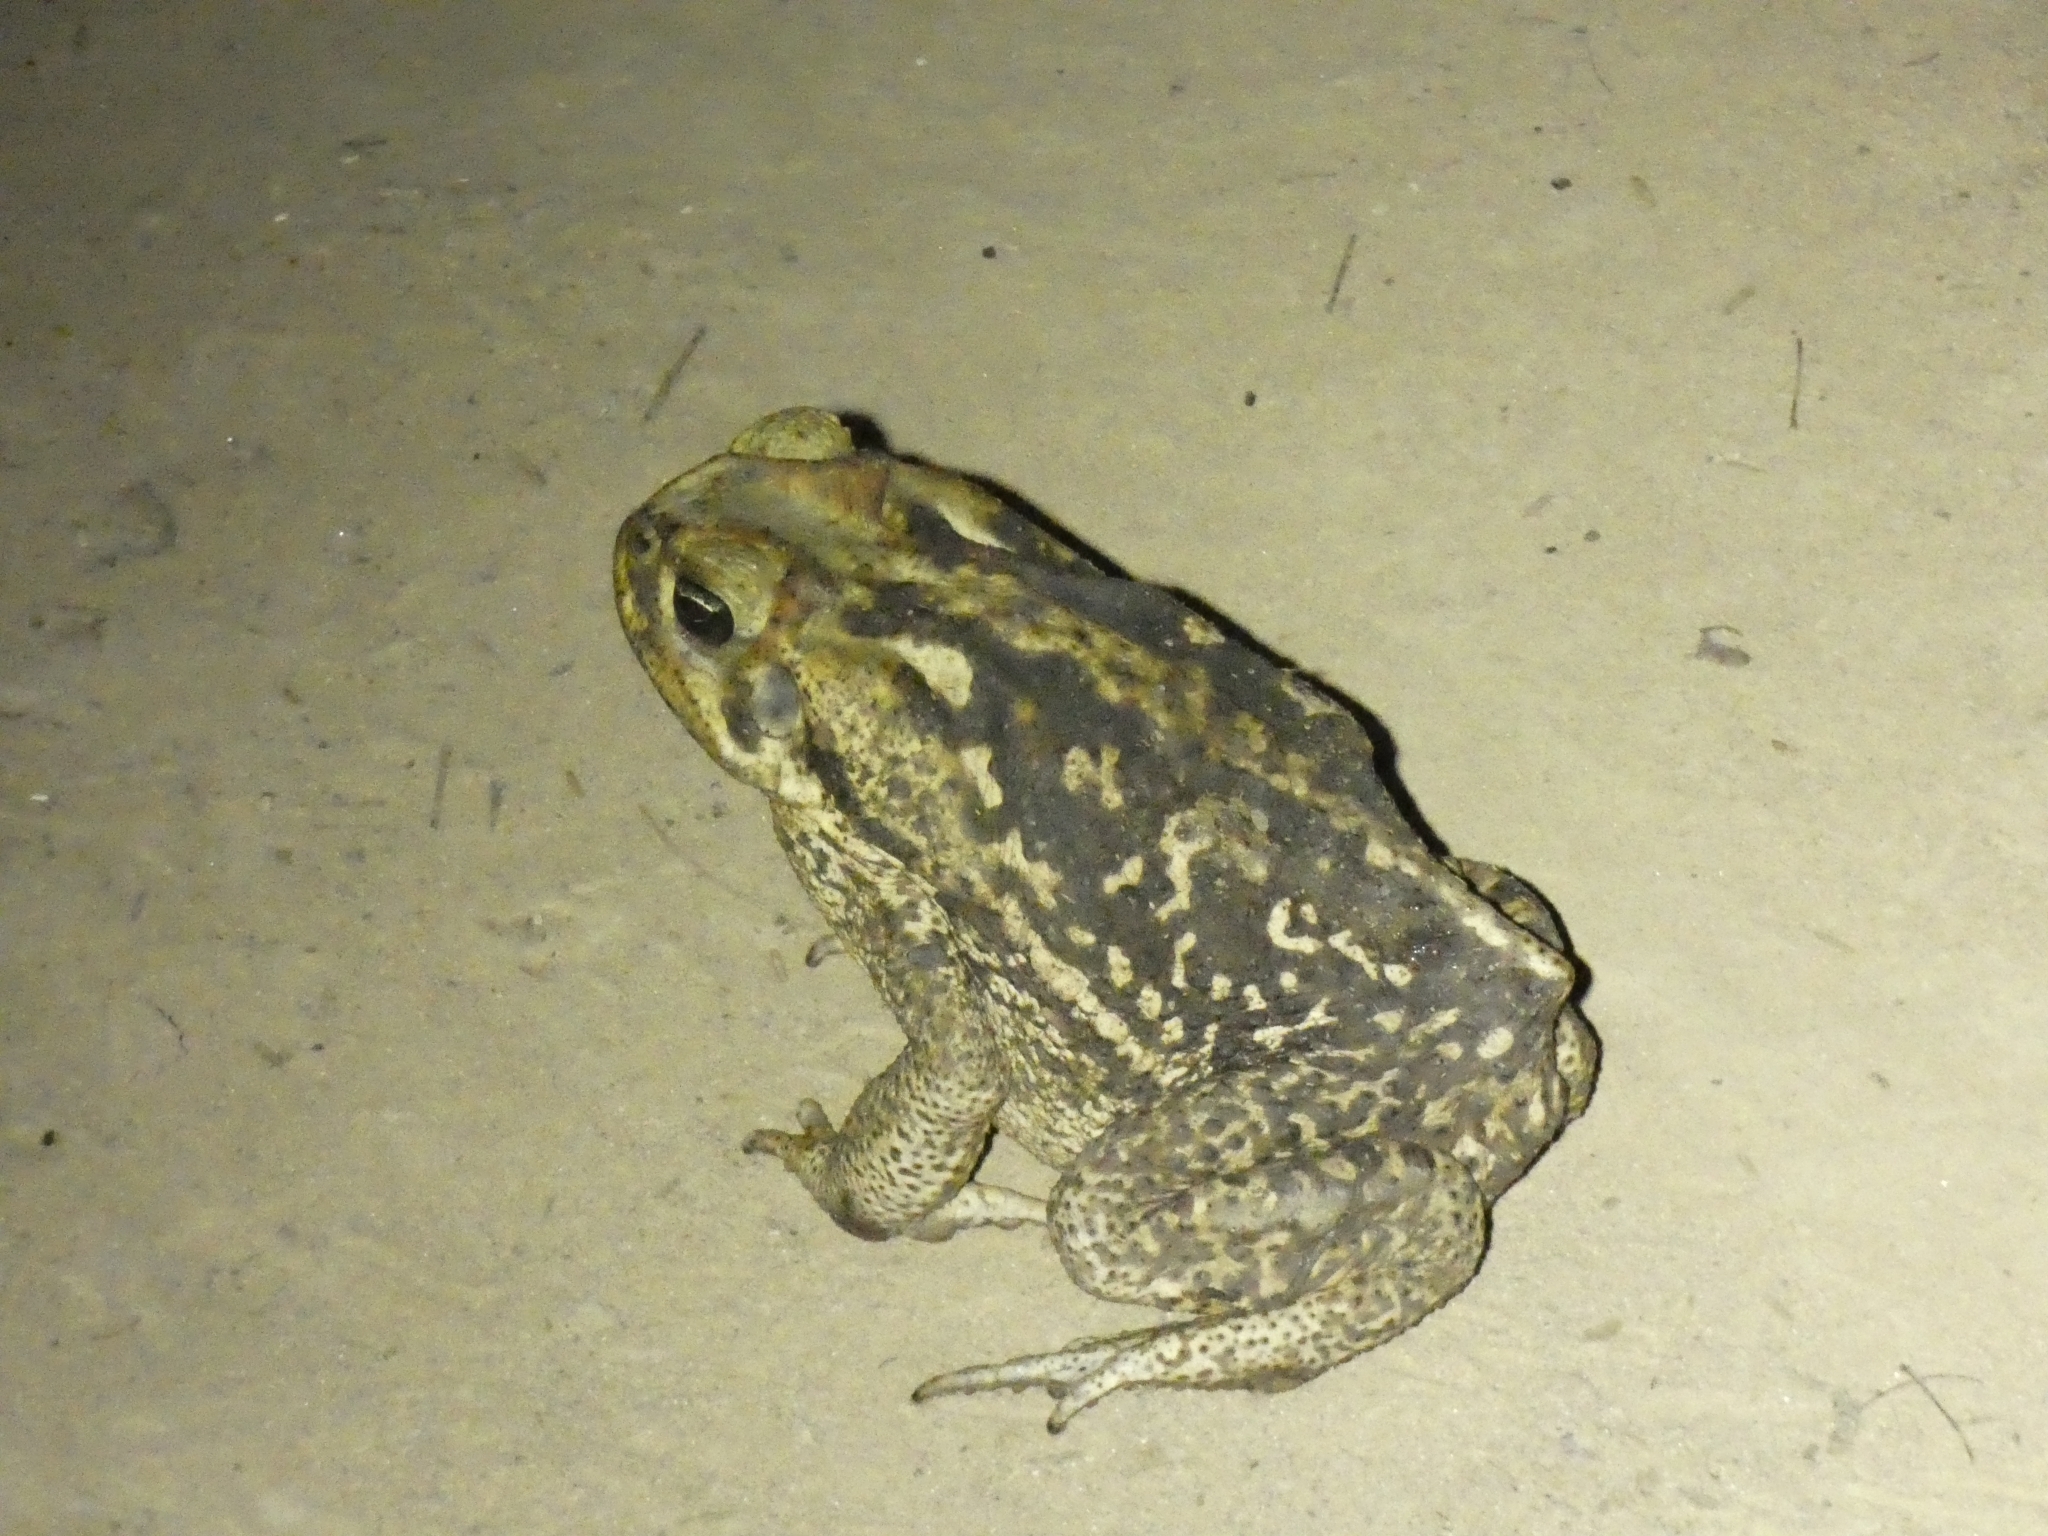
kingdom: Animalia
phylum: Chordata
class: Amphibia
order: Anura
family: Bufonidae
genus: Rhinella
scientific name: Rhinella diptycha
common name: Cope's toad
